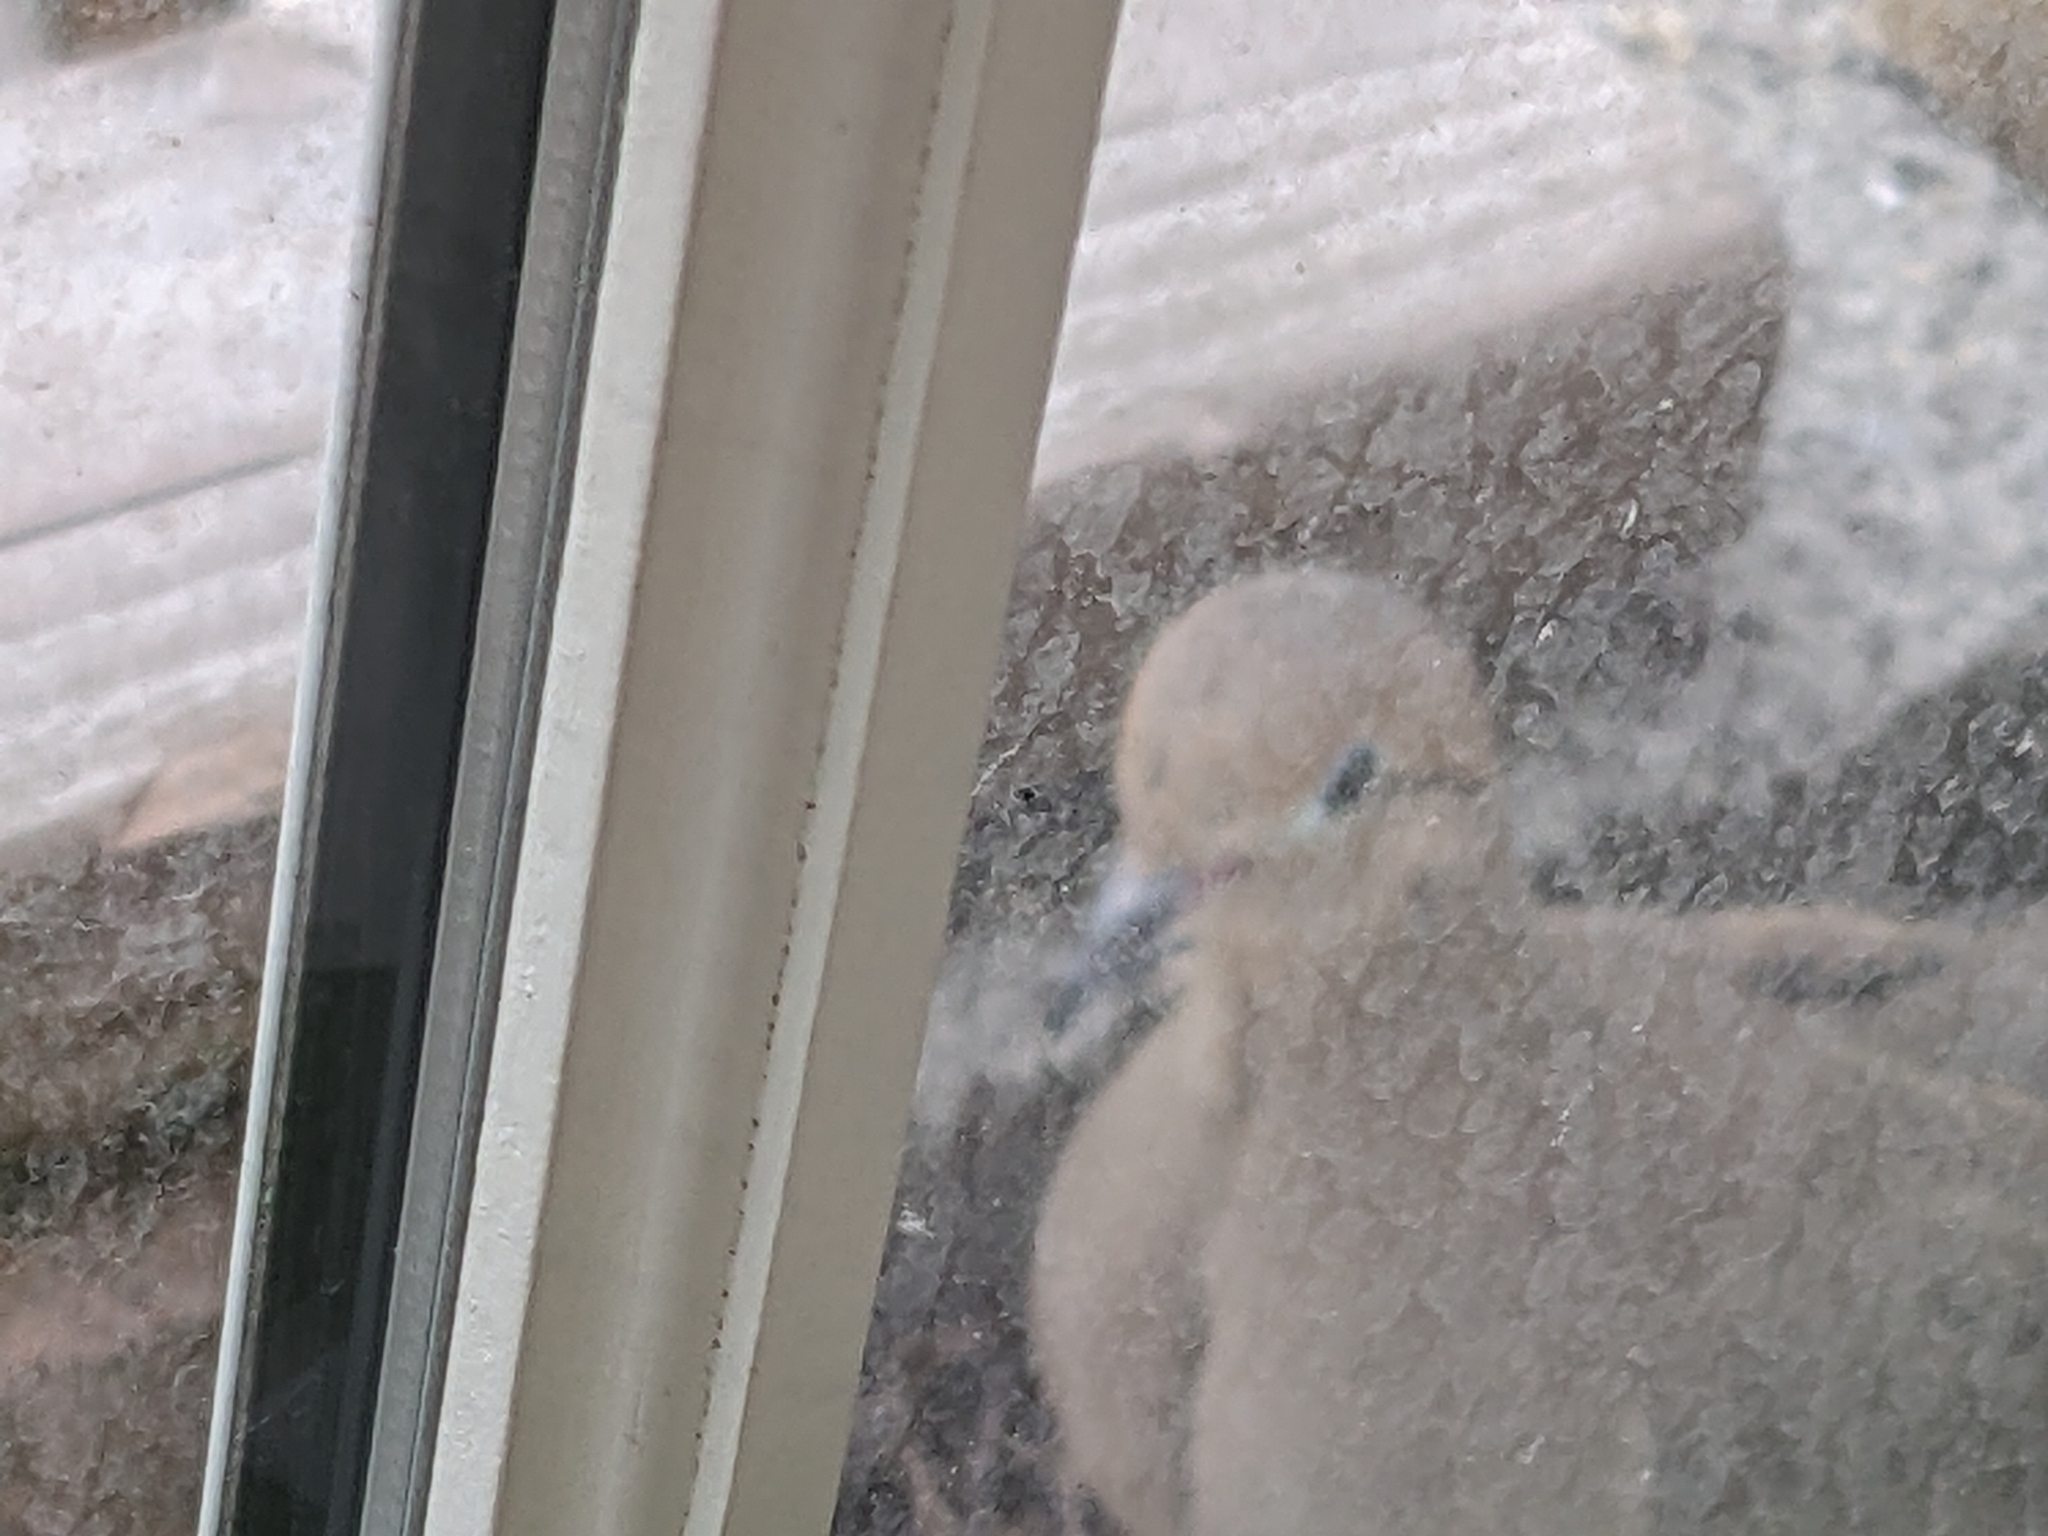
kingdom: Animalia
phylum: Chordata
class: Aves
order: Columbiformes
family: Columbidae
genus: Zenaida
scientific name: Zenaida macroura
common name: Mourning dove
